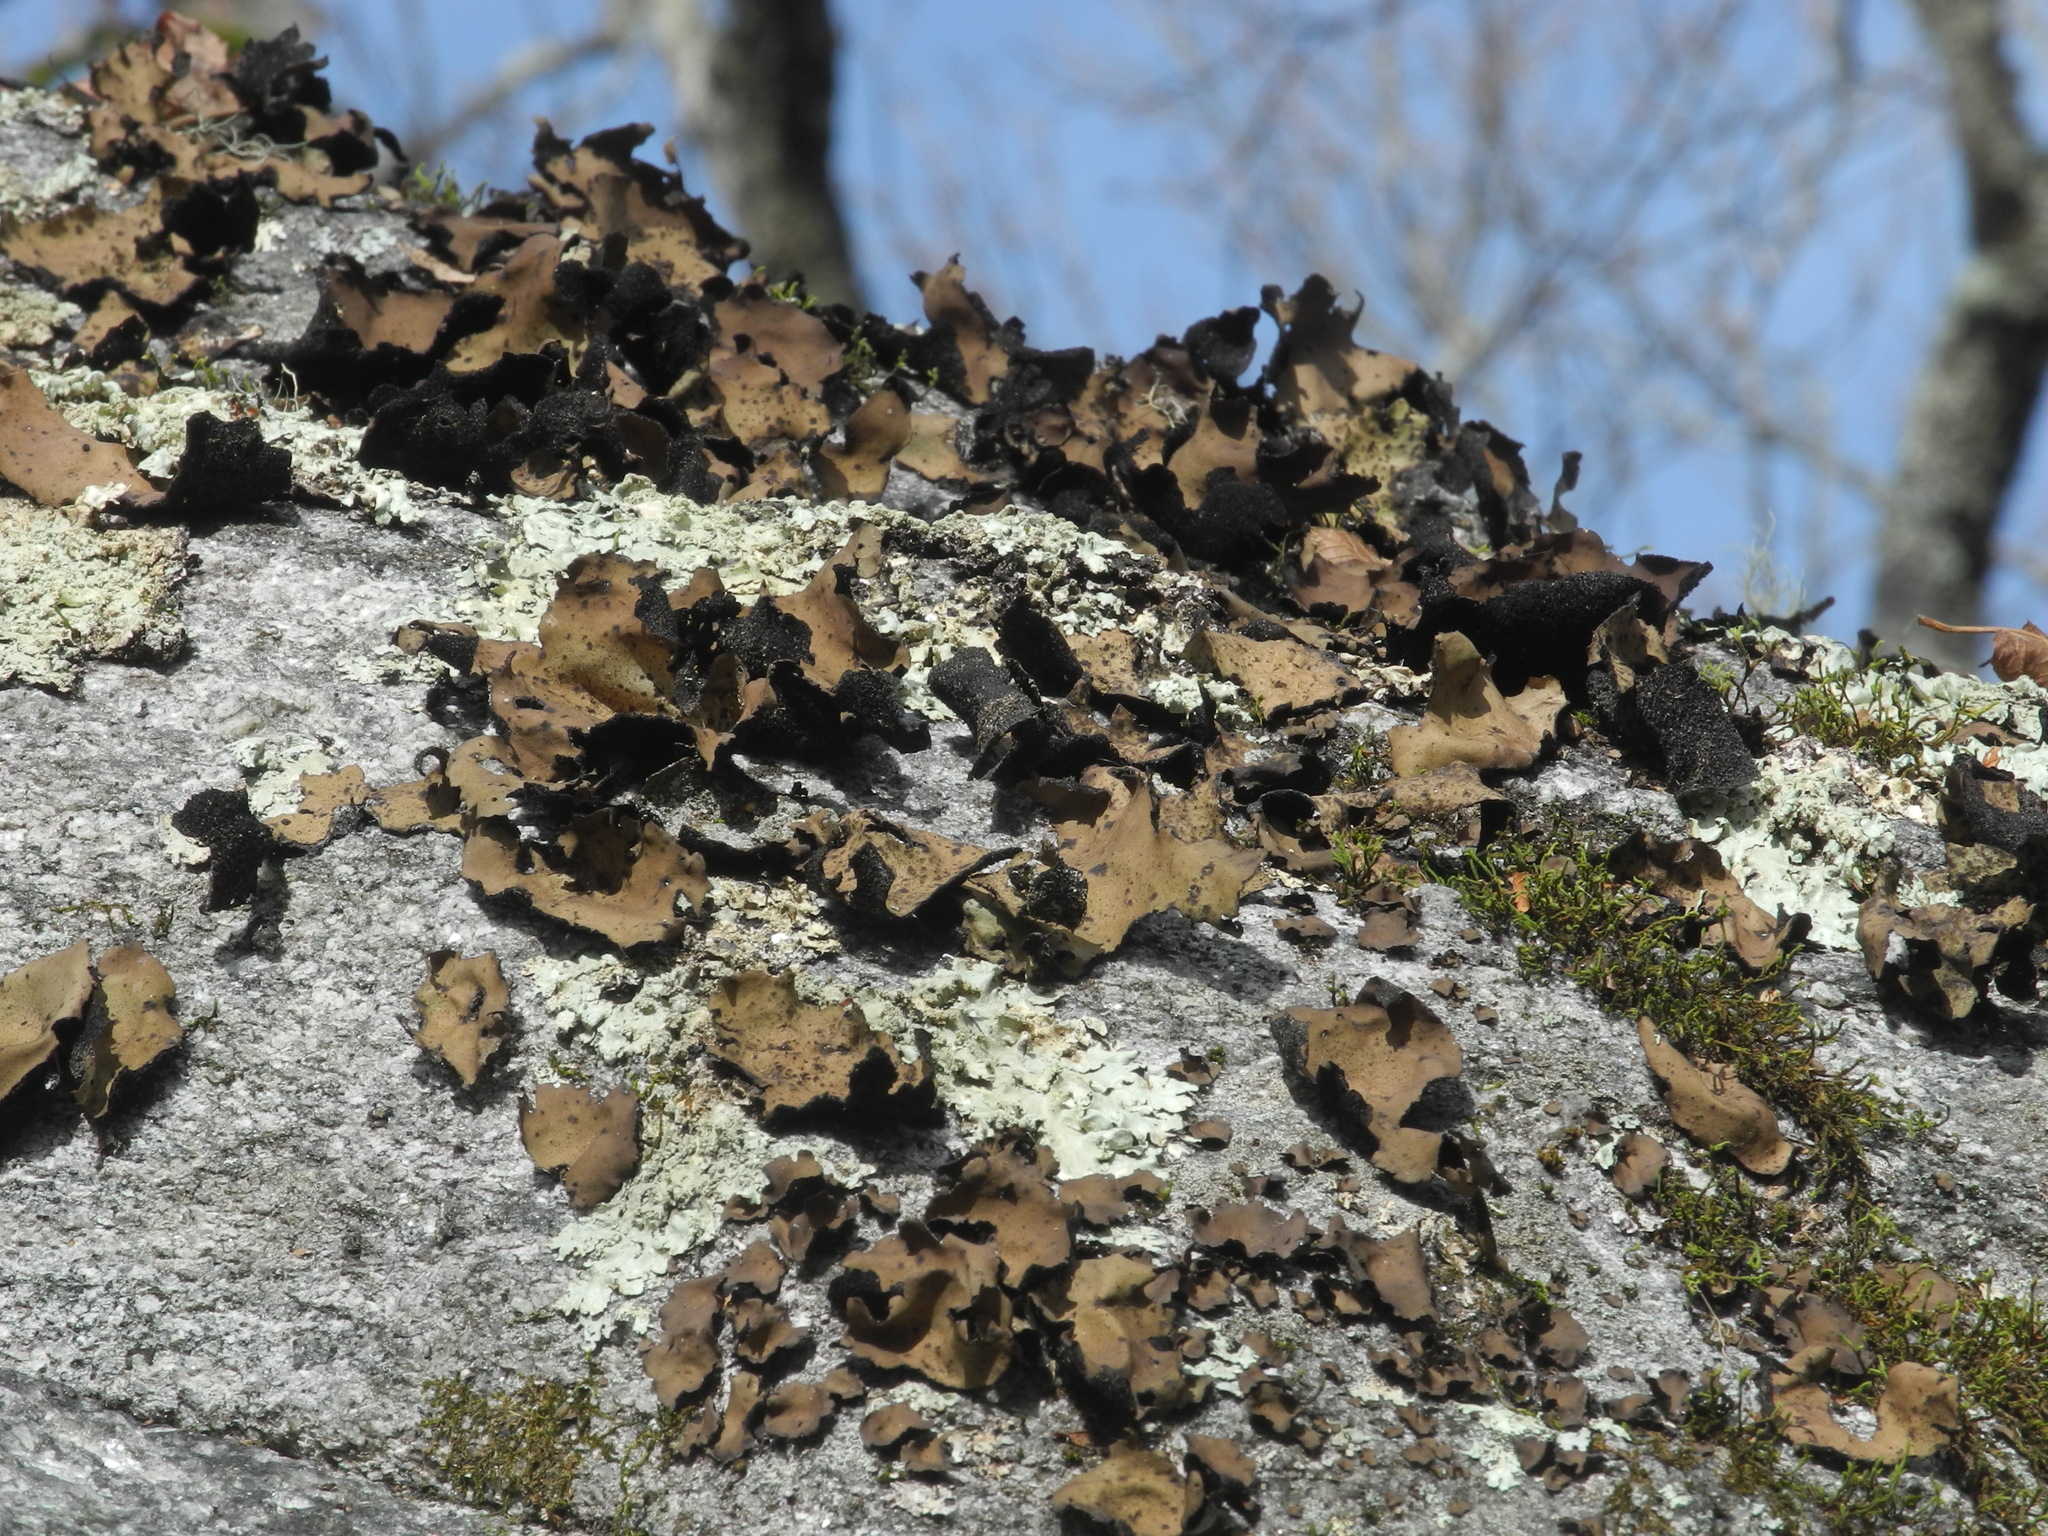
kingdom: Fungi
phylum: Ascomycota
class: Lecanoromycetes
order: Umbilicariales
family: Umbilicariaceae
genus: Umbilicaria
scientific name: Umbilicaria mammulata
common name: Smooth rock tripe
